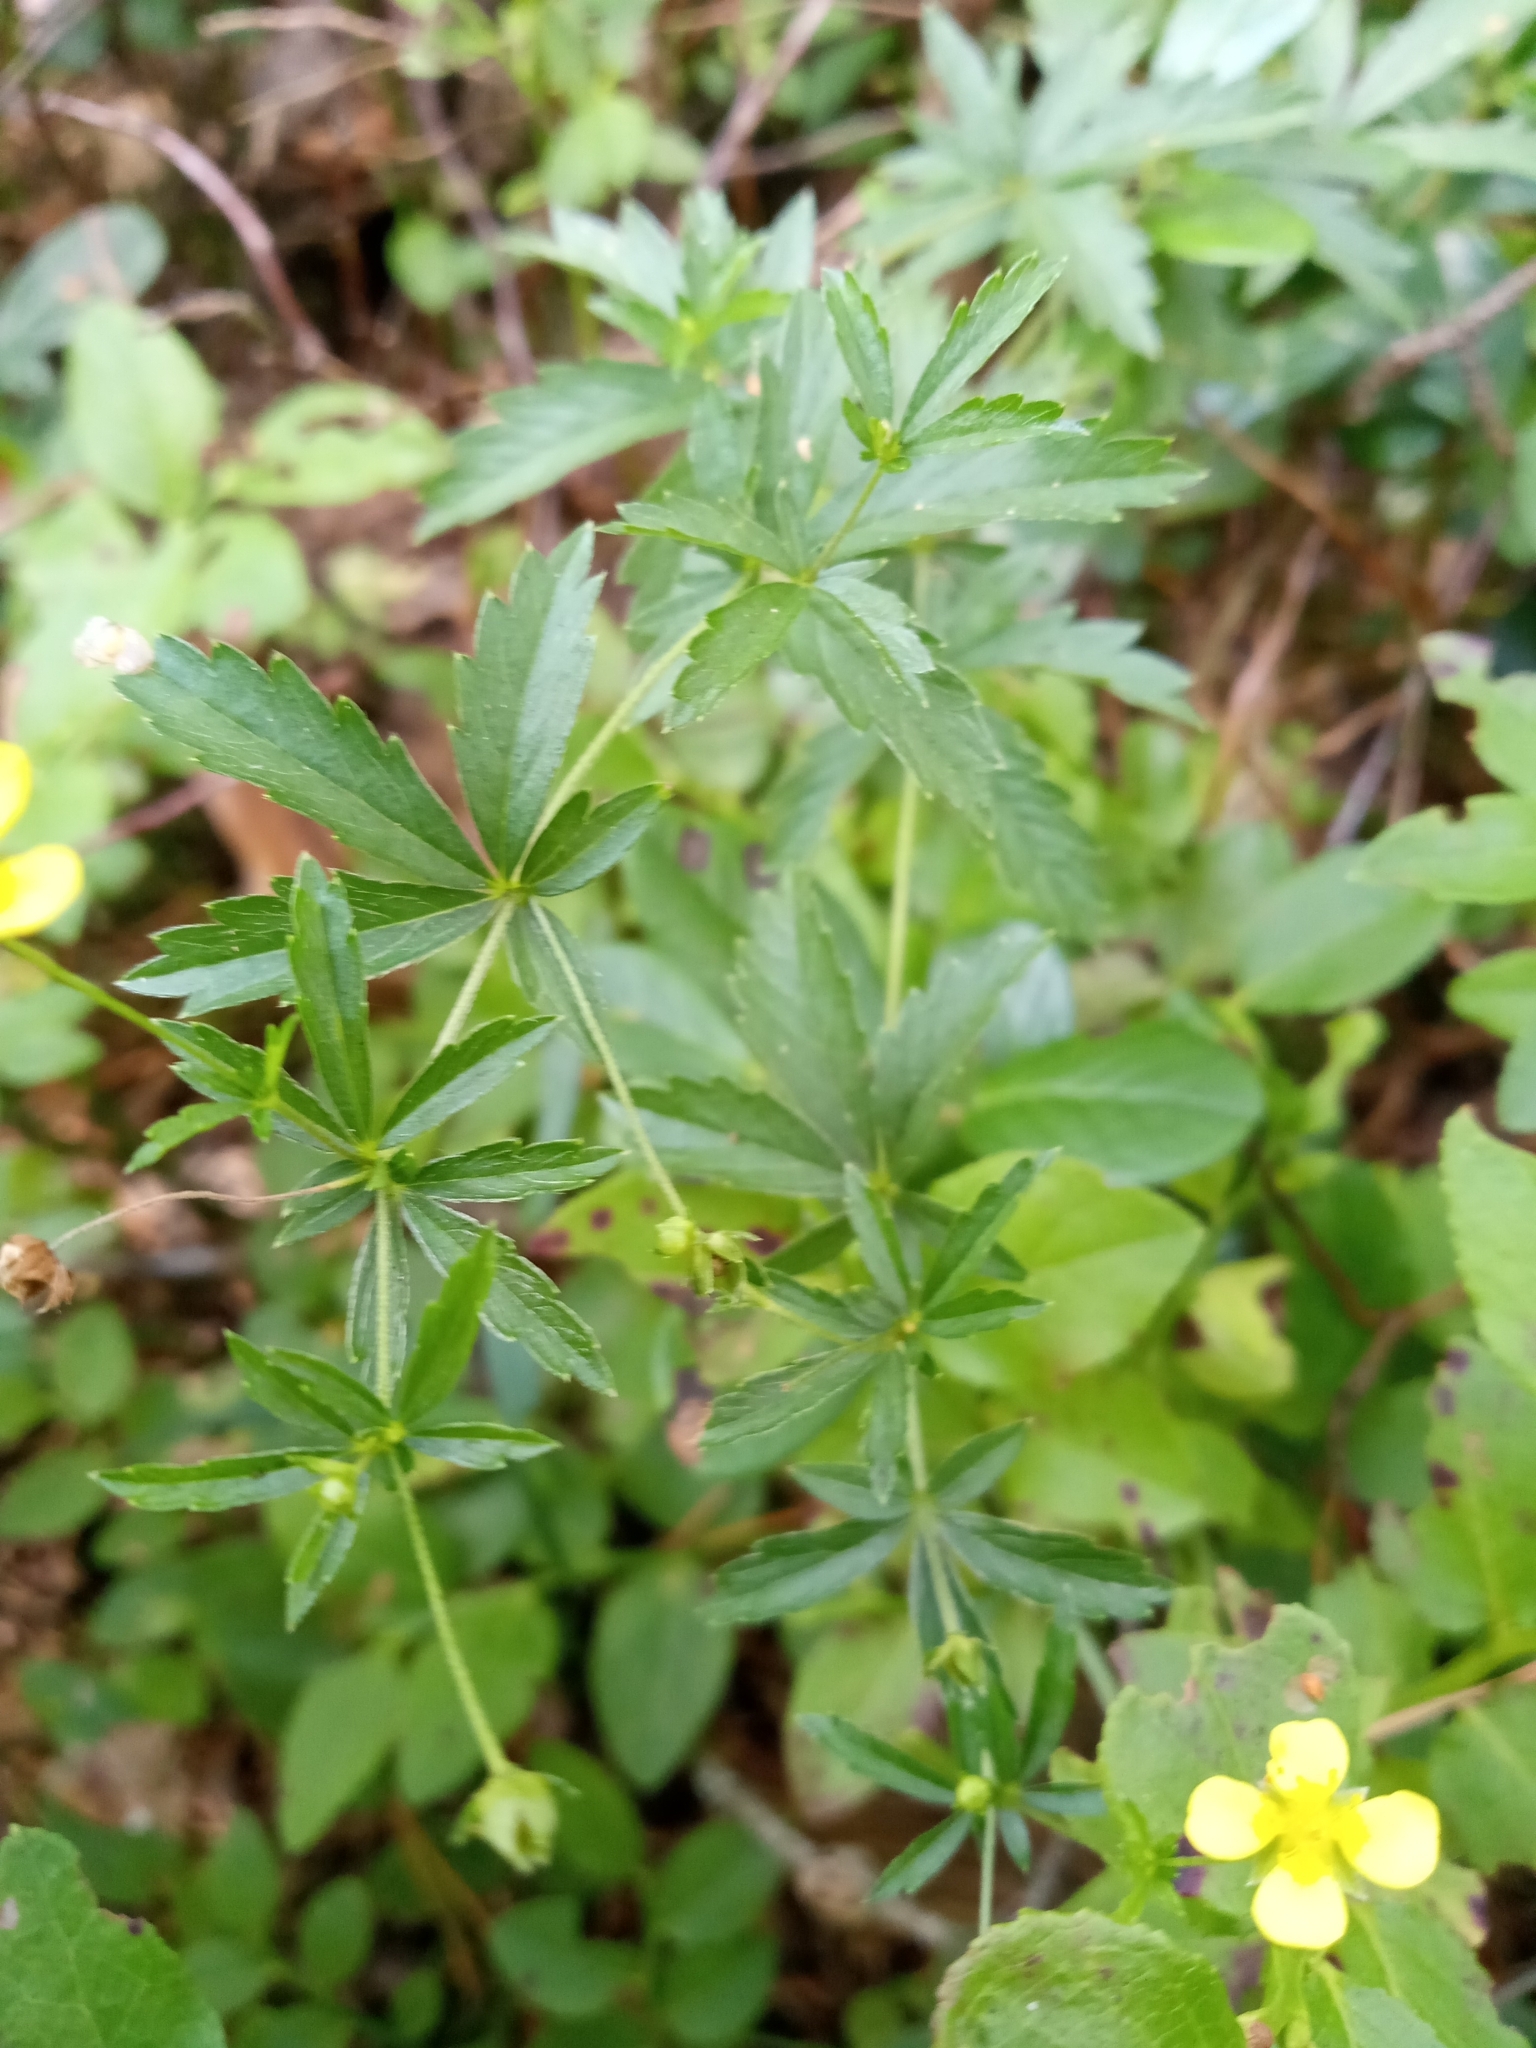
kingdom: Plantae
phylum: Tracheophyta
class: Magnoliopsida
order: Rosales
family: Rosaceae
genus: Potentilla
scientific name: Potentilla erecta
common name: Tormentil
